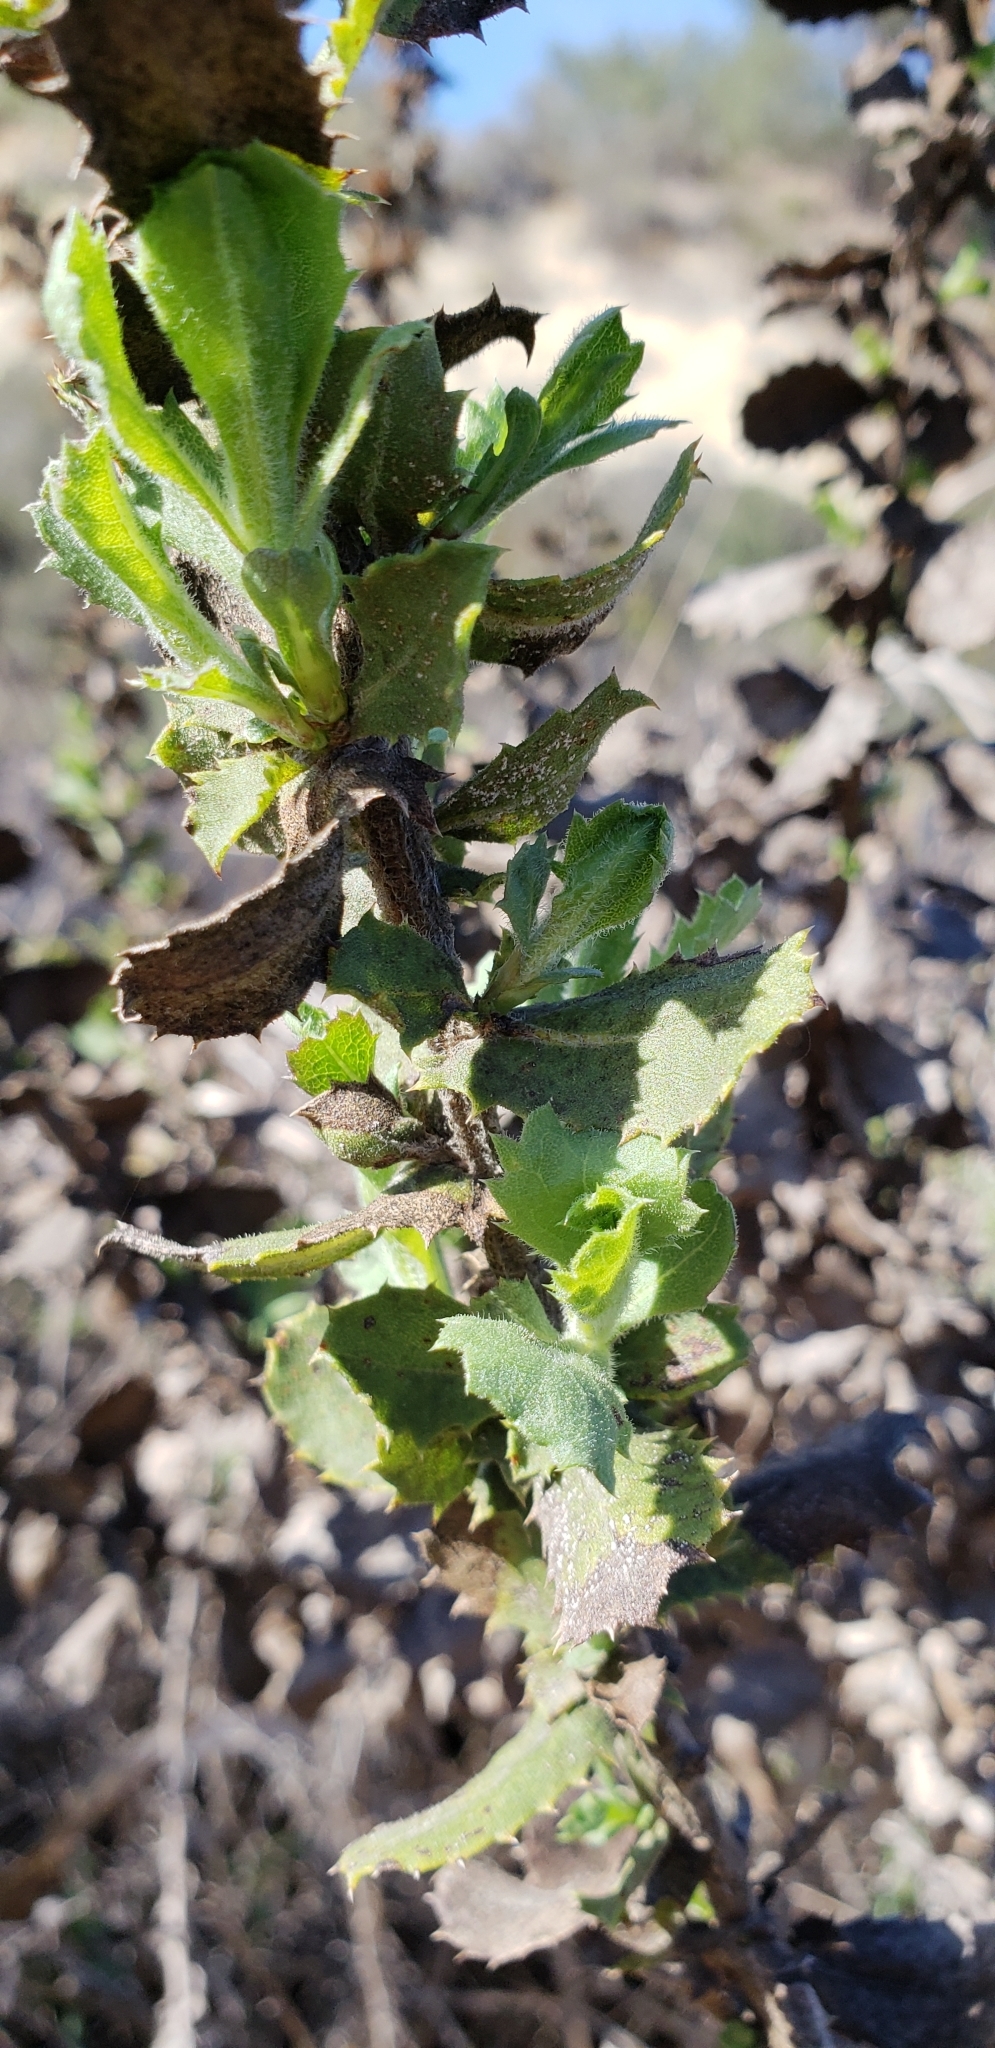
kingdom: Plantae
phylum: Tracheophyta
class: Magnoliopsida
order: Asterales
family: Asteraceae
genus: Hazardia
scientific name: Hazardia squarrosa
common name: Saw-tooth goldenbush
